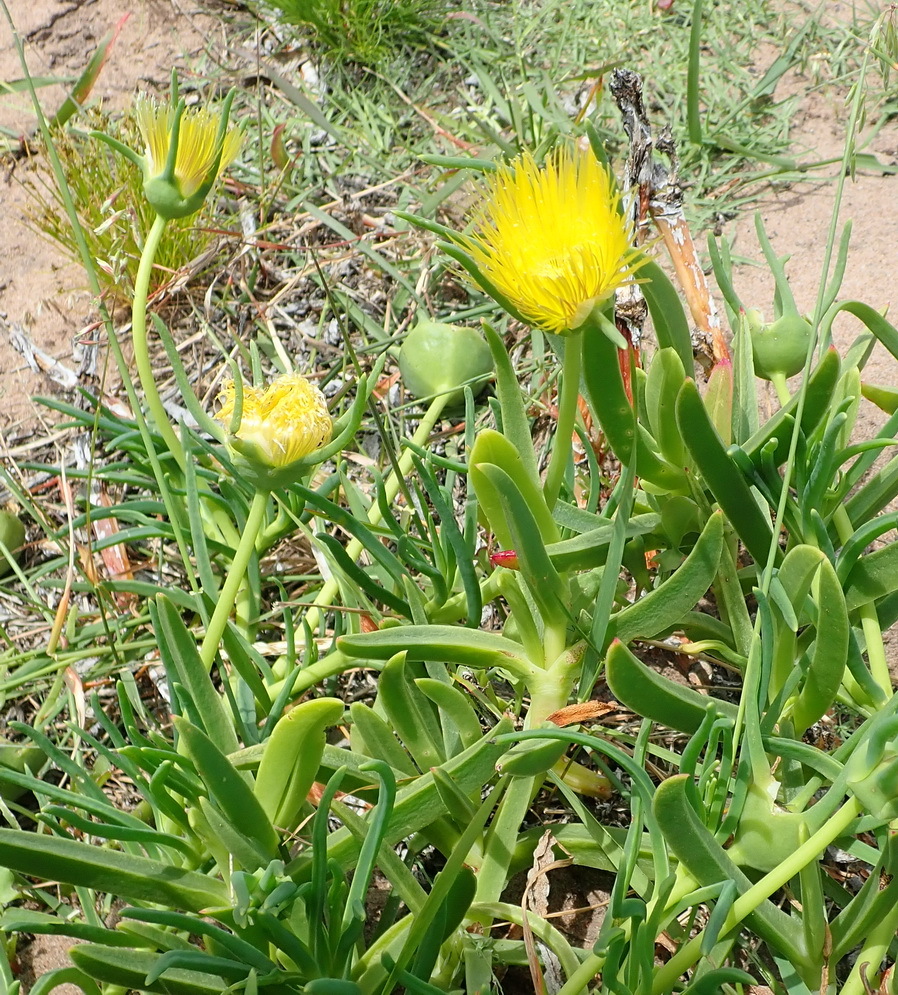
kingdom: Plantae
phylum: Tracheophyta
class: Magnoliopsida
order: Caryophyllales
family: Aizoaceae
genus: Conicosia
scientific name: Conicosia pugioniformis
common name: Narrow-leaved iceplant
